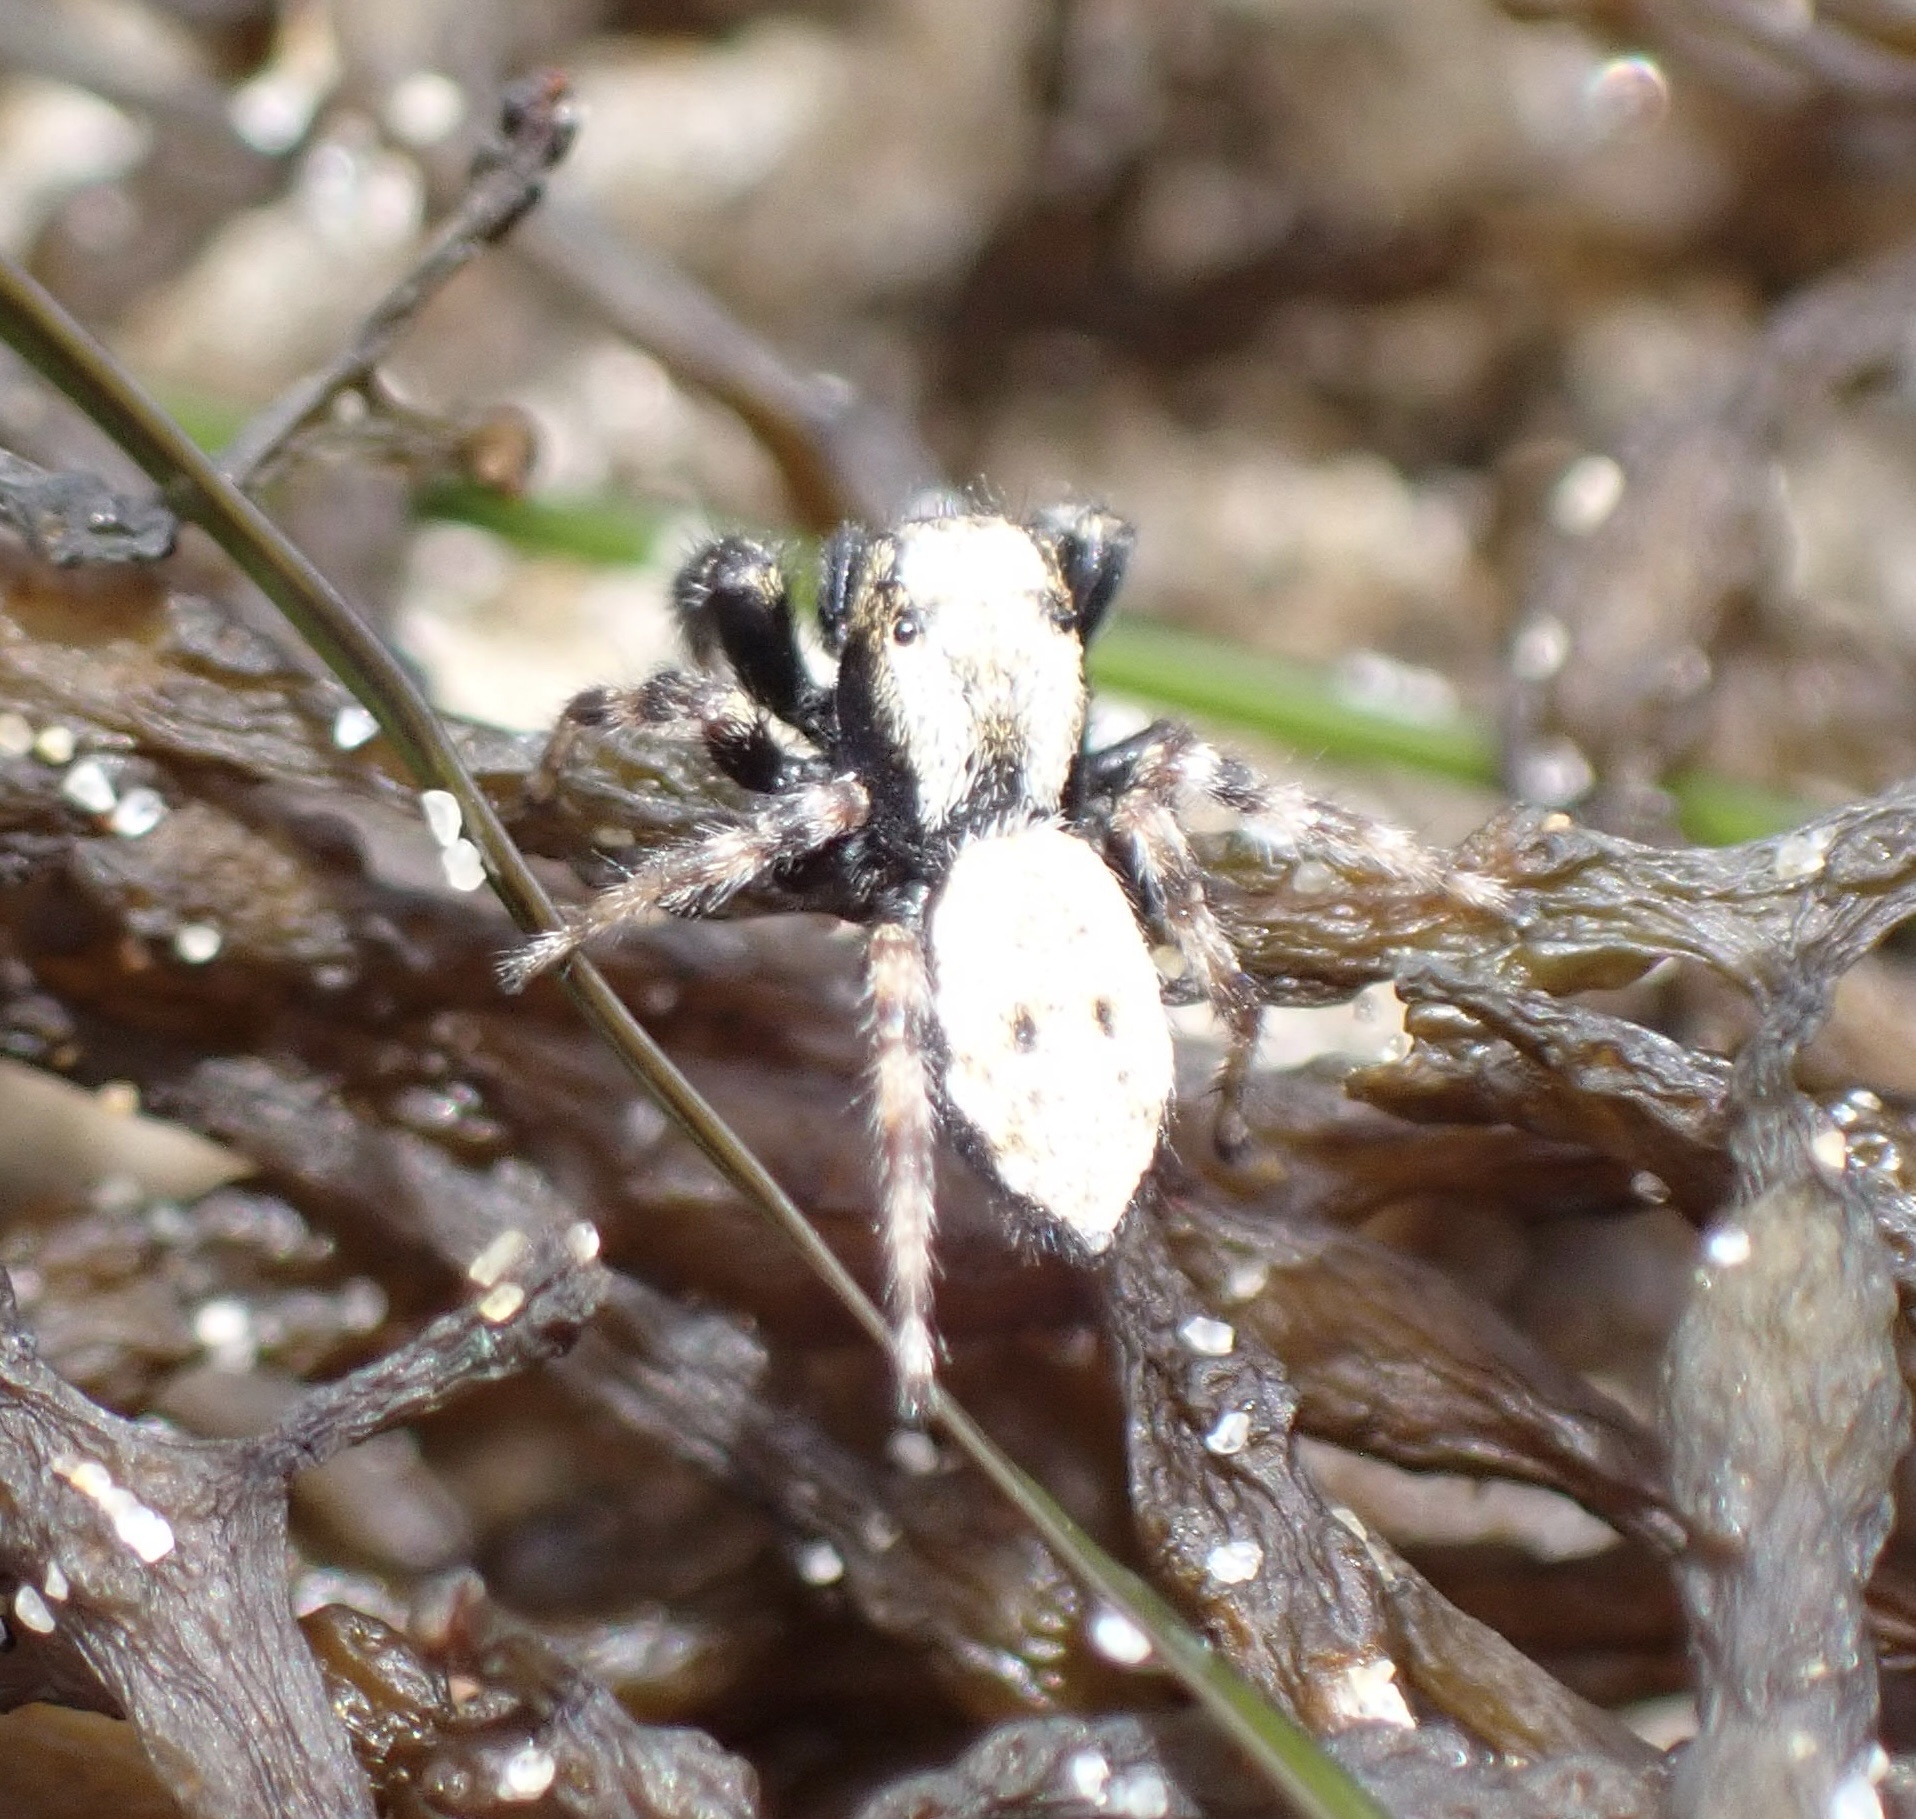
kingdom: Animalia
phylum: Arthropoda
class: Arachnida
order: Araneae
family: Salticidae
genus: Terralonus
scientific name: Terralonus californicus
